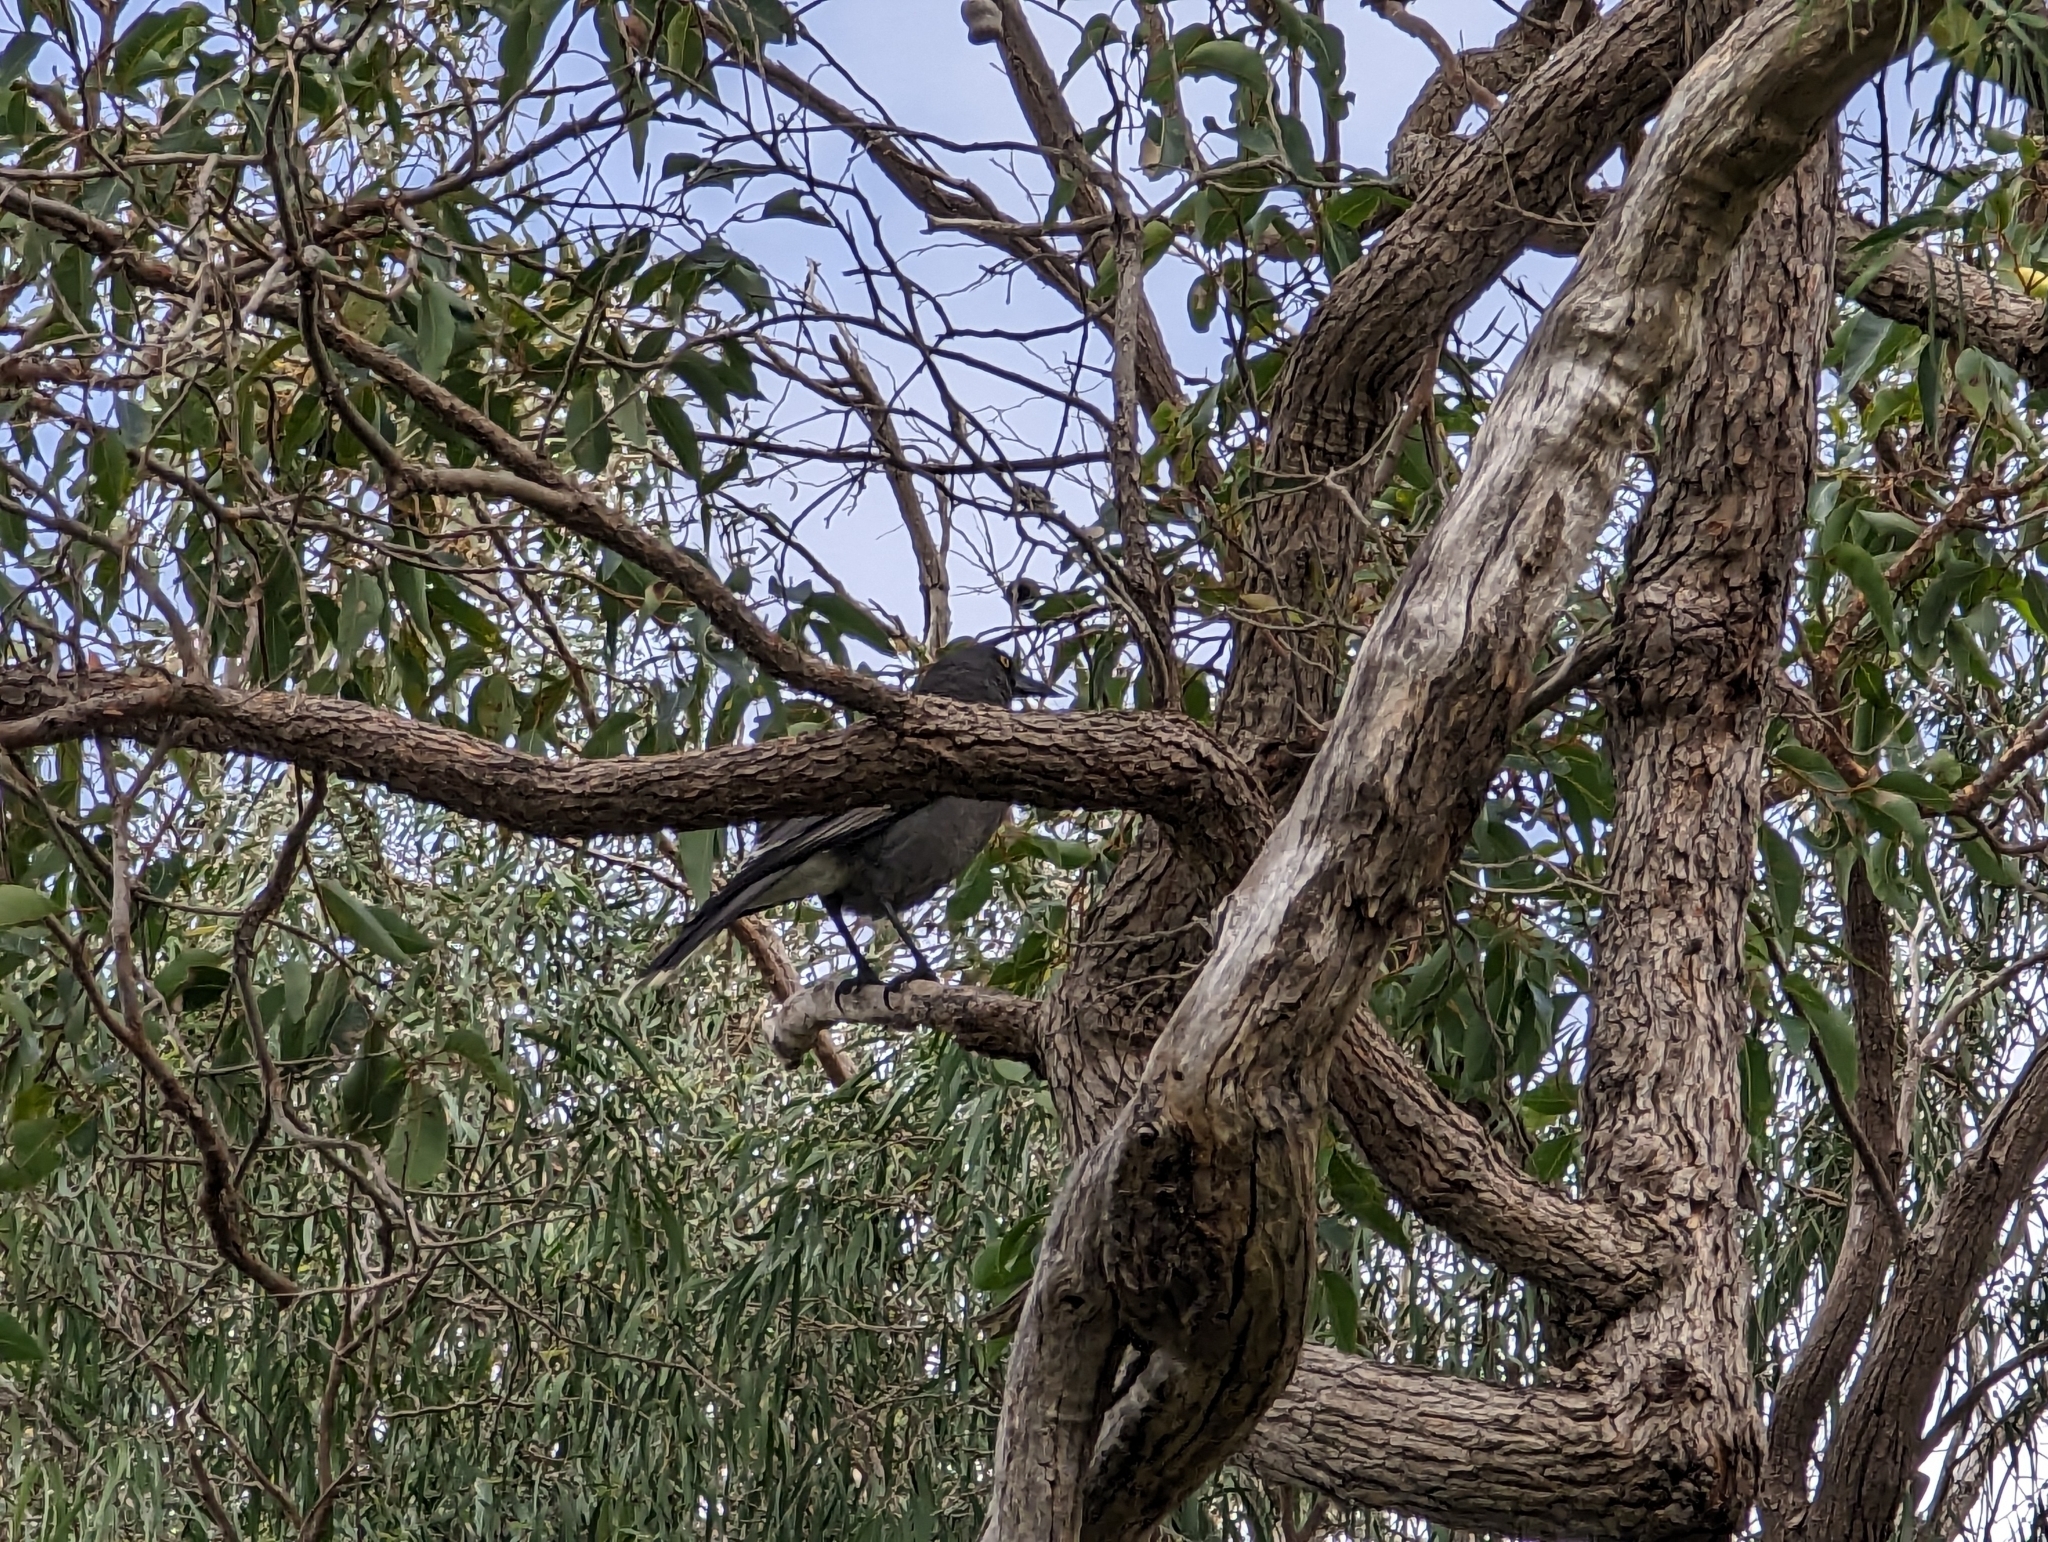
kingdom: Animalia
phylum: Chordata
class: Aves
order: Passeriformes
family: Cracticidae
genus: Strepera
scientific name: Strepera versicolor
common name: Grey currawong
